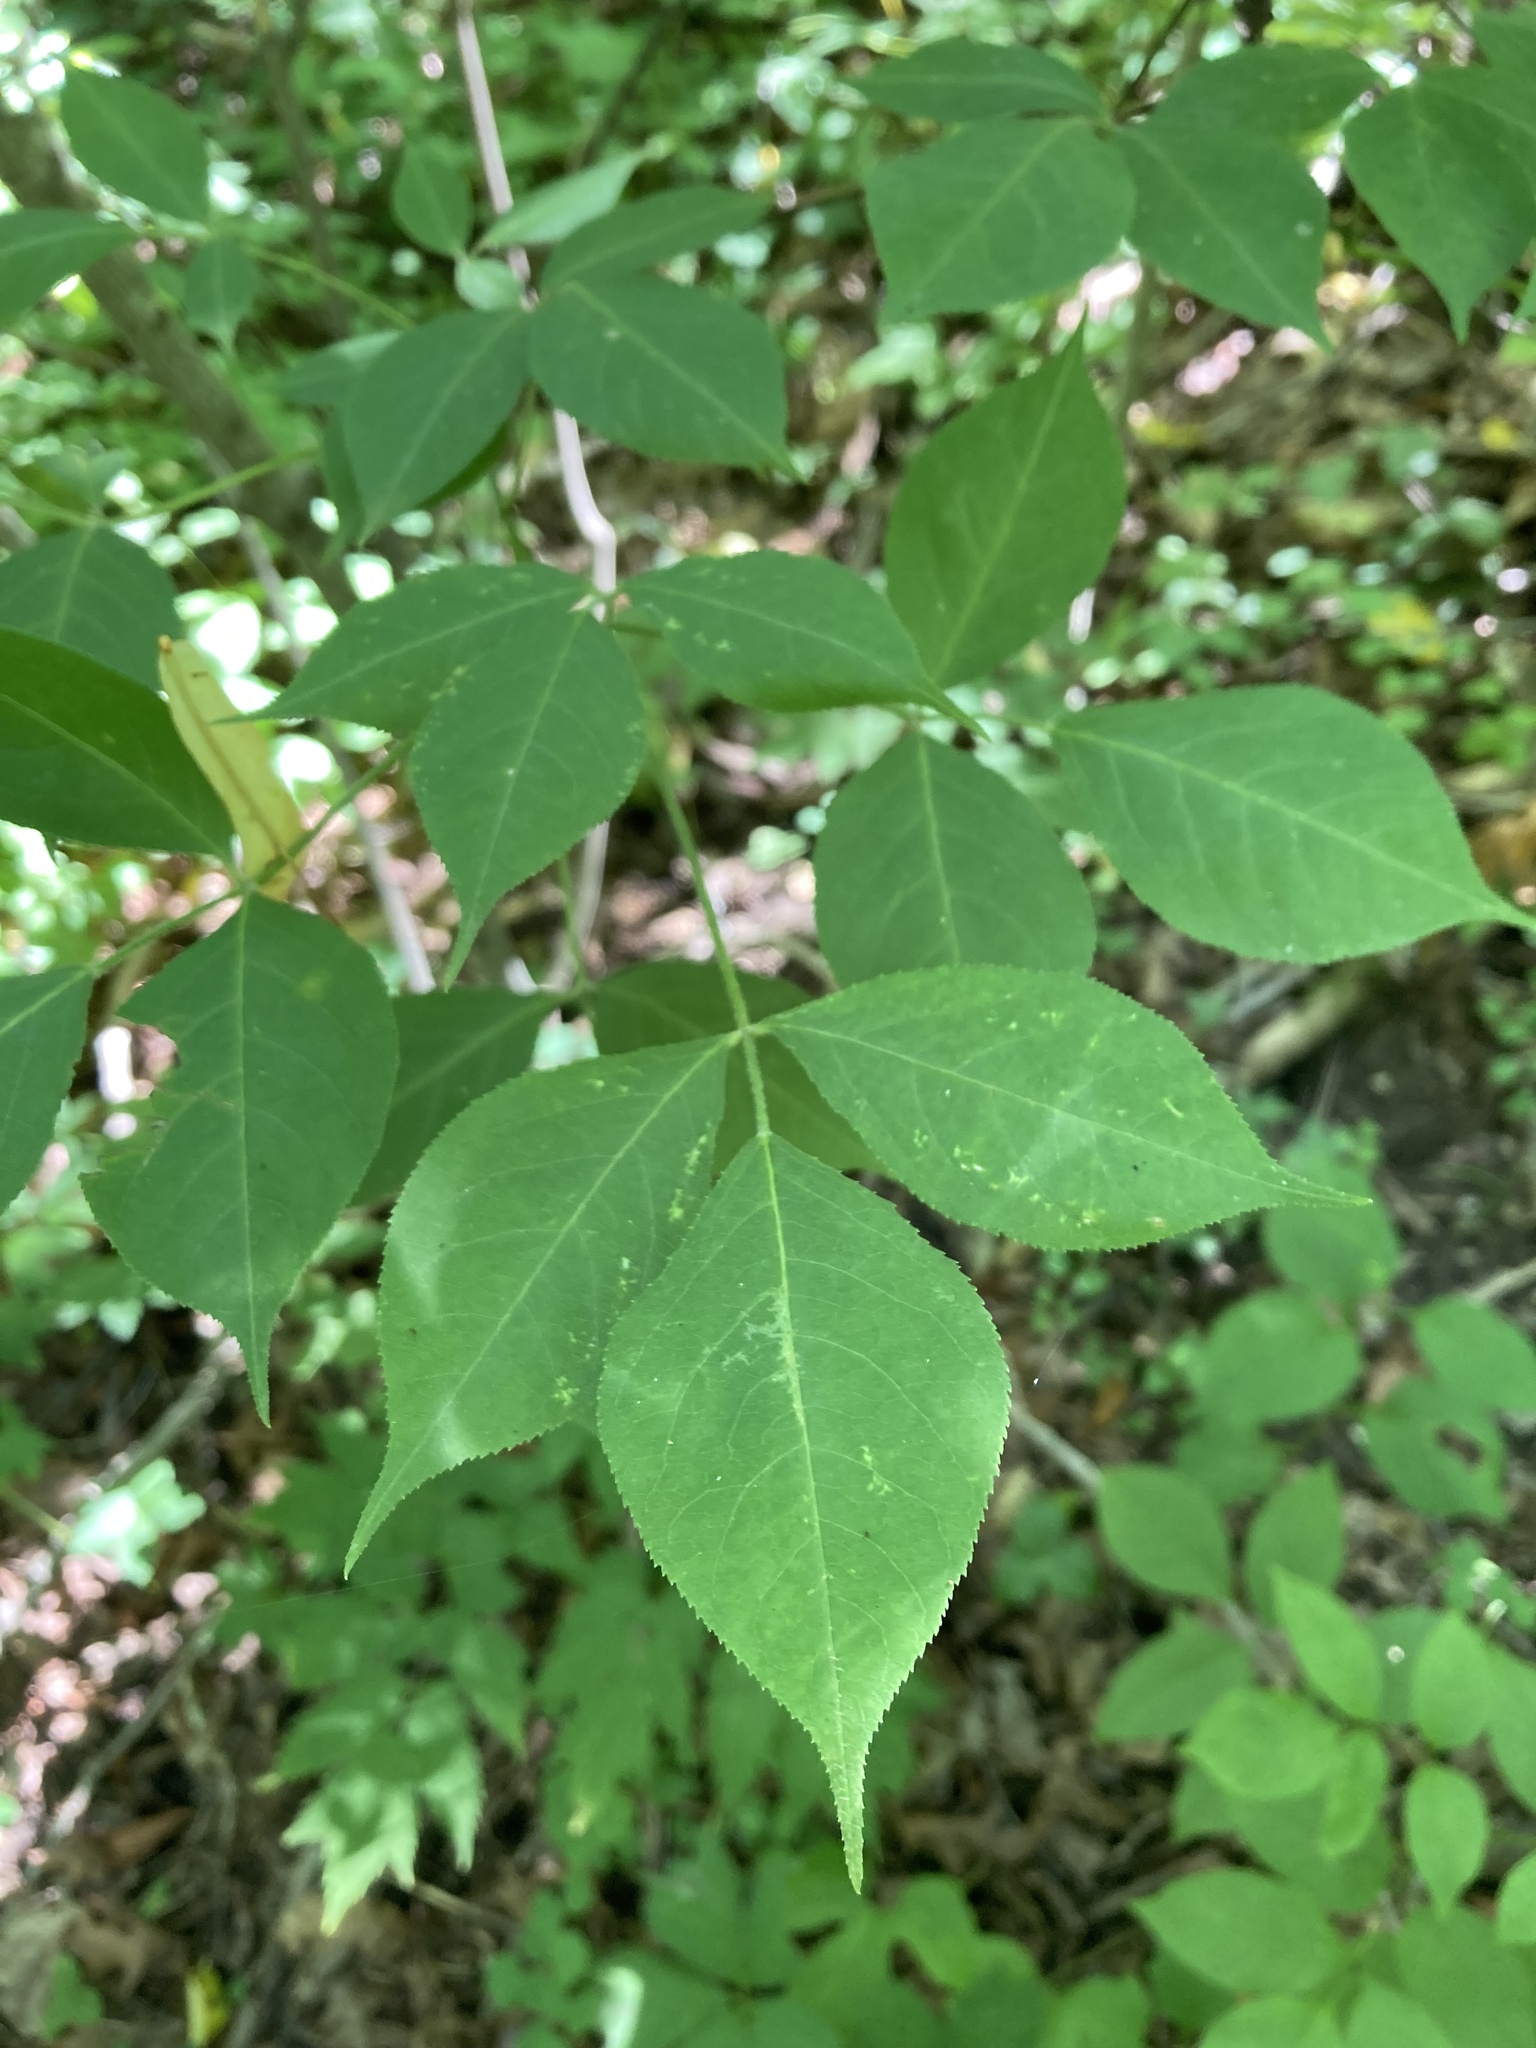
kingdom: Plantae
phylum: Tracheophyta
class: Magnoliopsida
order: Crossosomatales
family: Staphyleaceae
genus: Staphylea
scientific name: Staphylea trifolia
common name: American bladdernut
